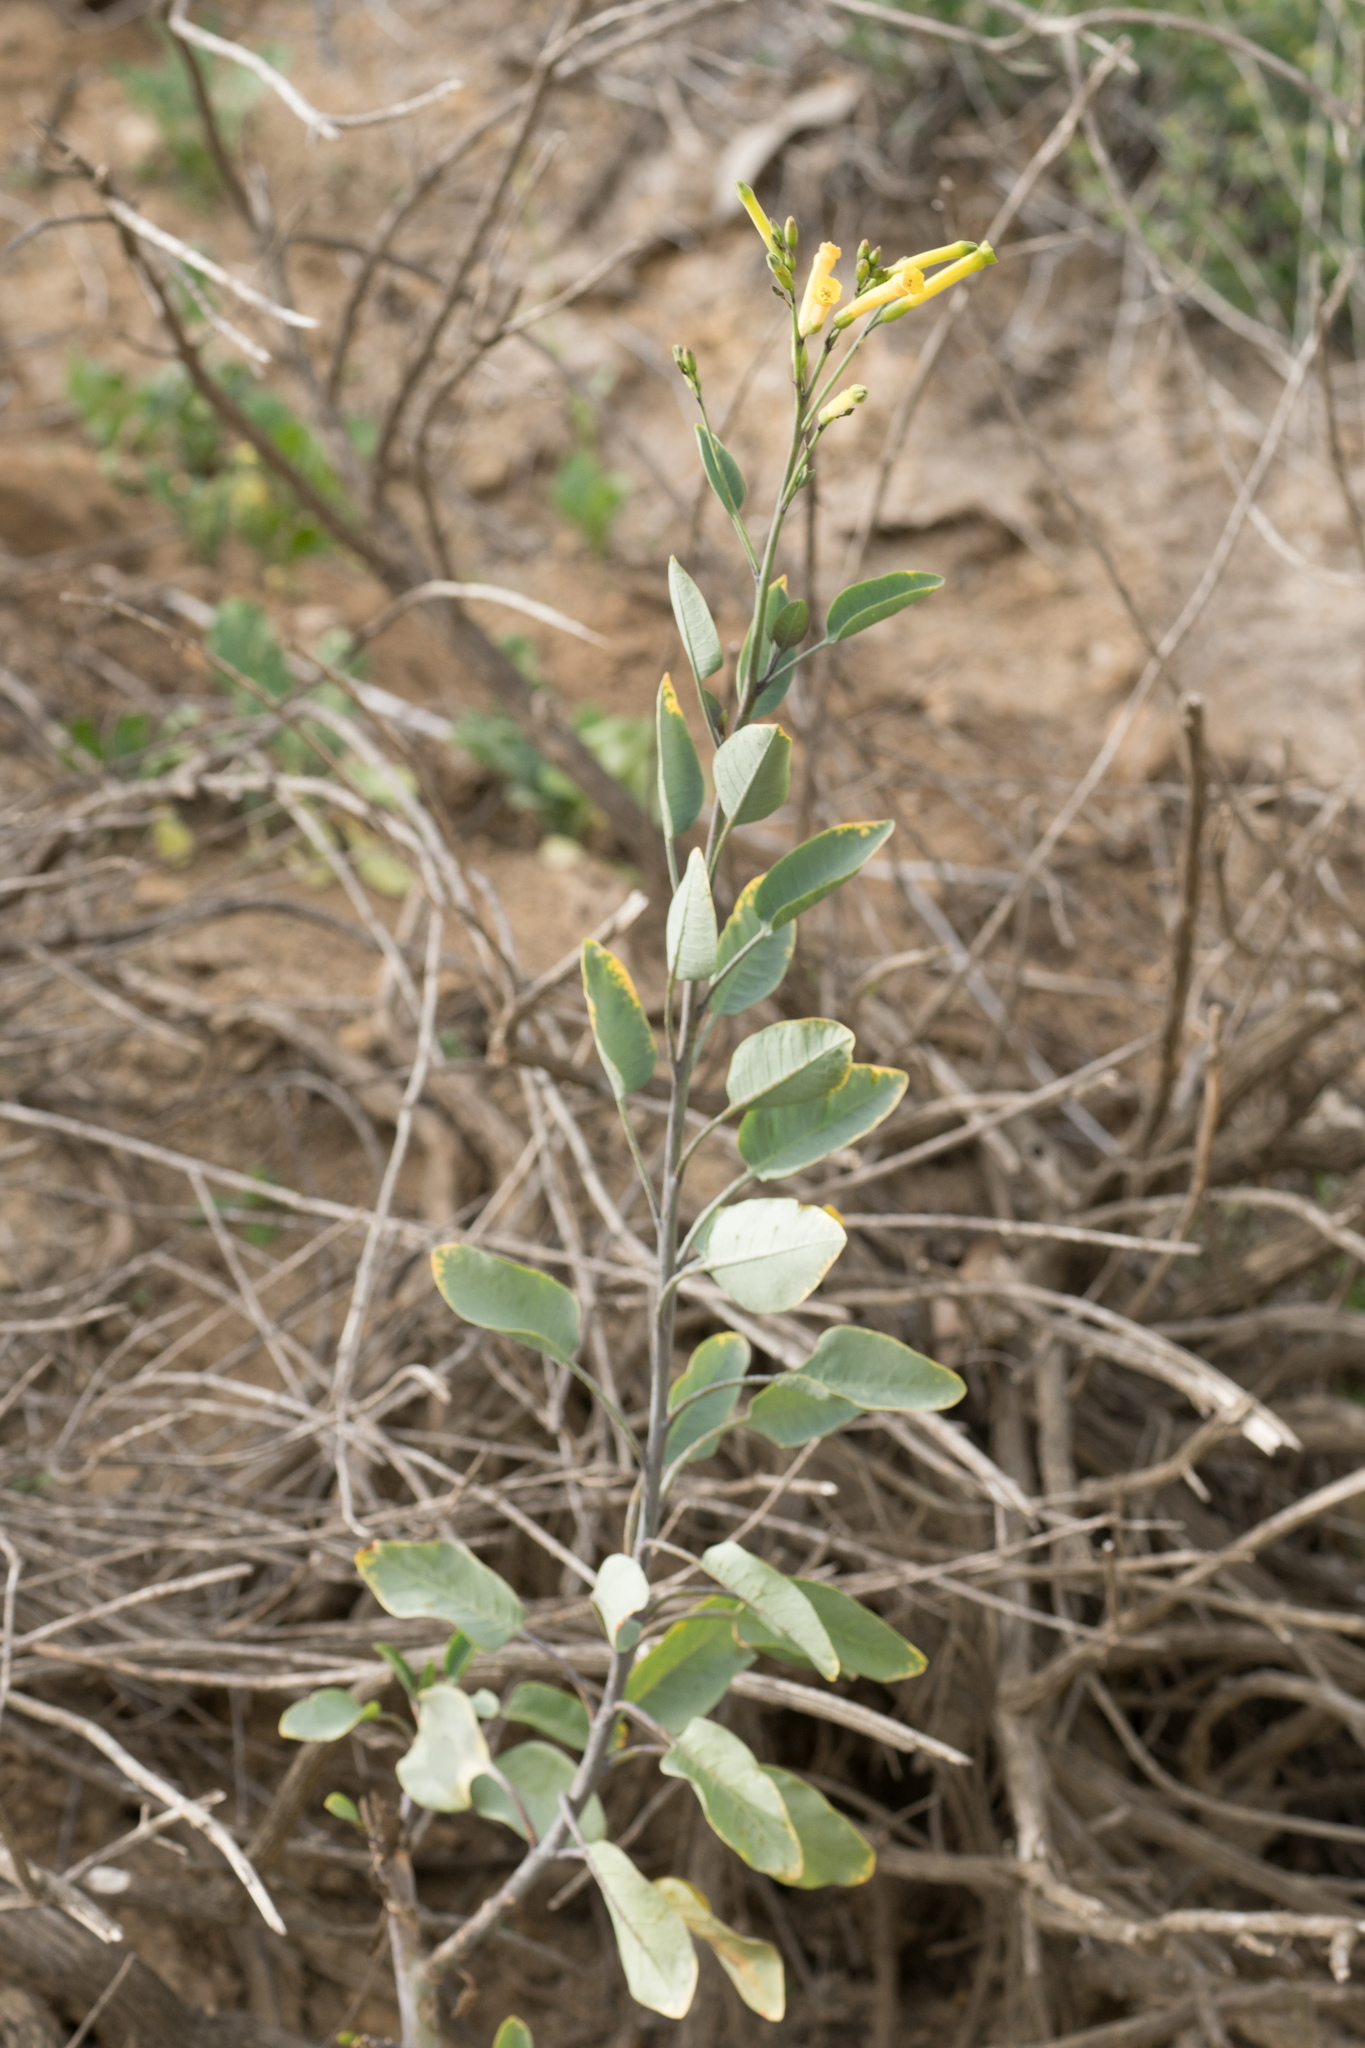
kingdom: Plantae
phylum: Tracheophyta
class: Magnoliopsida
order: Solanales
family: Solanaceae
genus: Nicotiana
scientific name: Nicotiana glauca
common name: Tree tobacco
